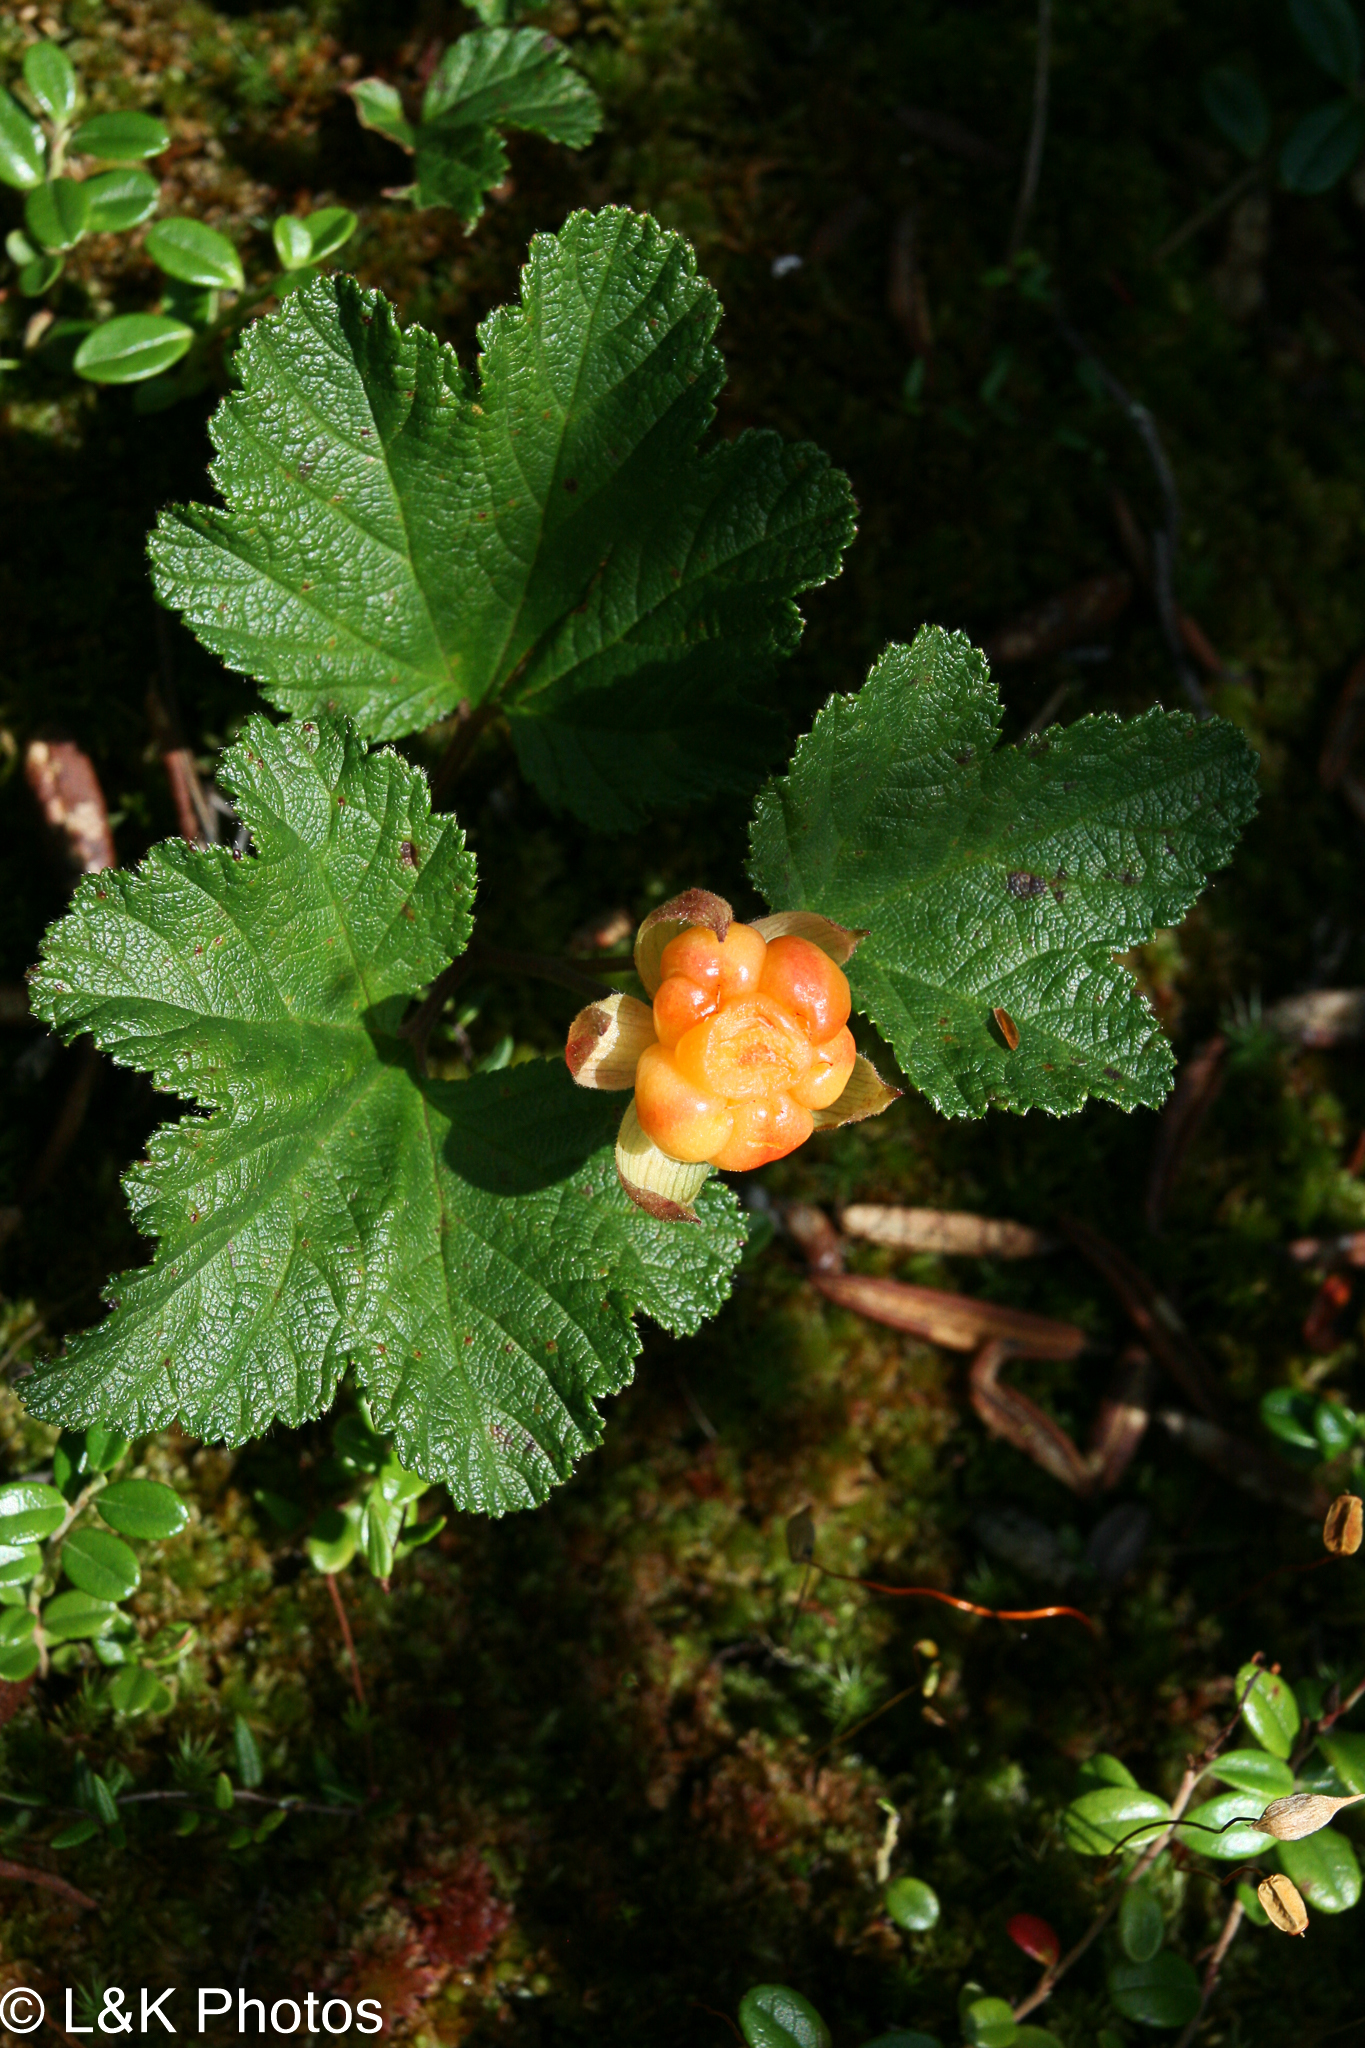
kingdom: Plantae
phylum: Tracheophyta
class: Magnoliopsida
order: Rosales
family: Rosaceae
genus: Rubus
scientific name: Rubus chamaemorus
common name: Cloudberry
